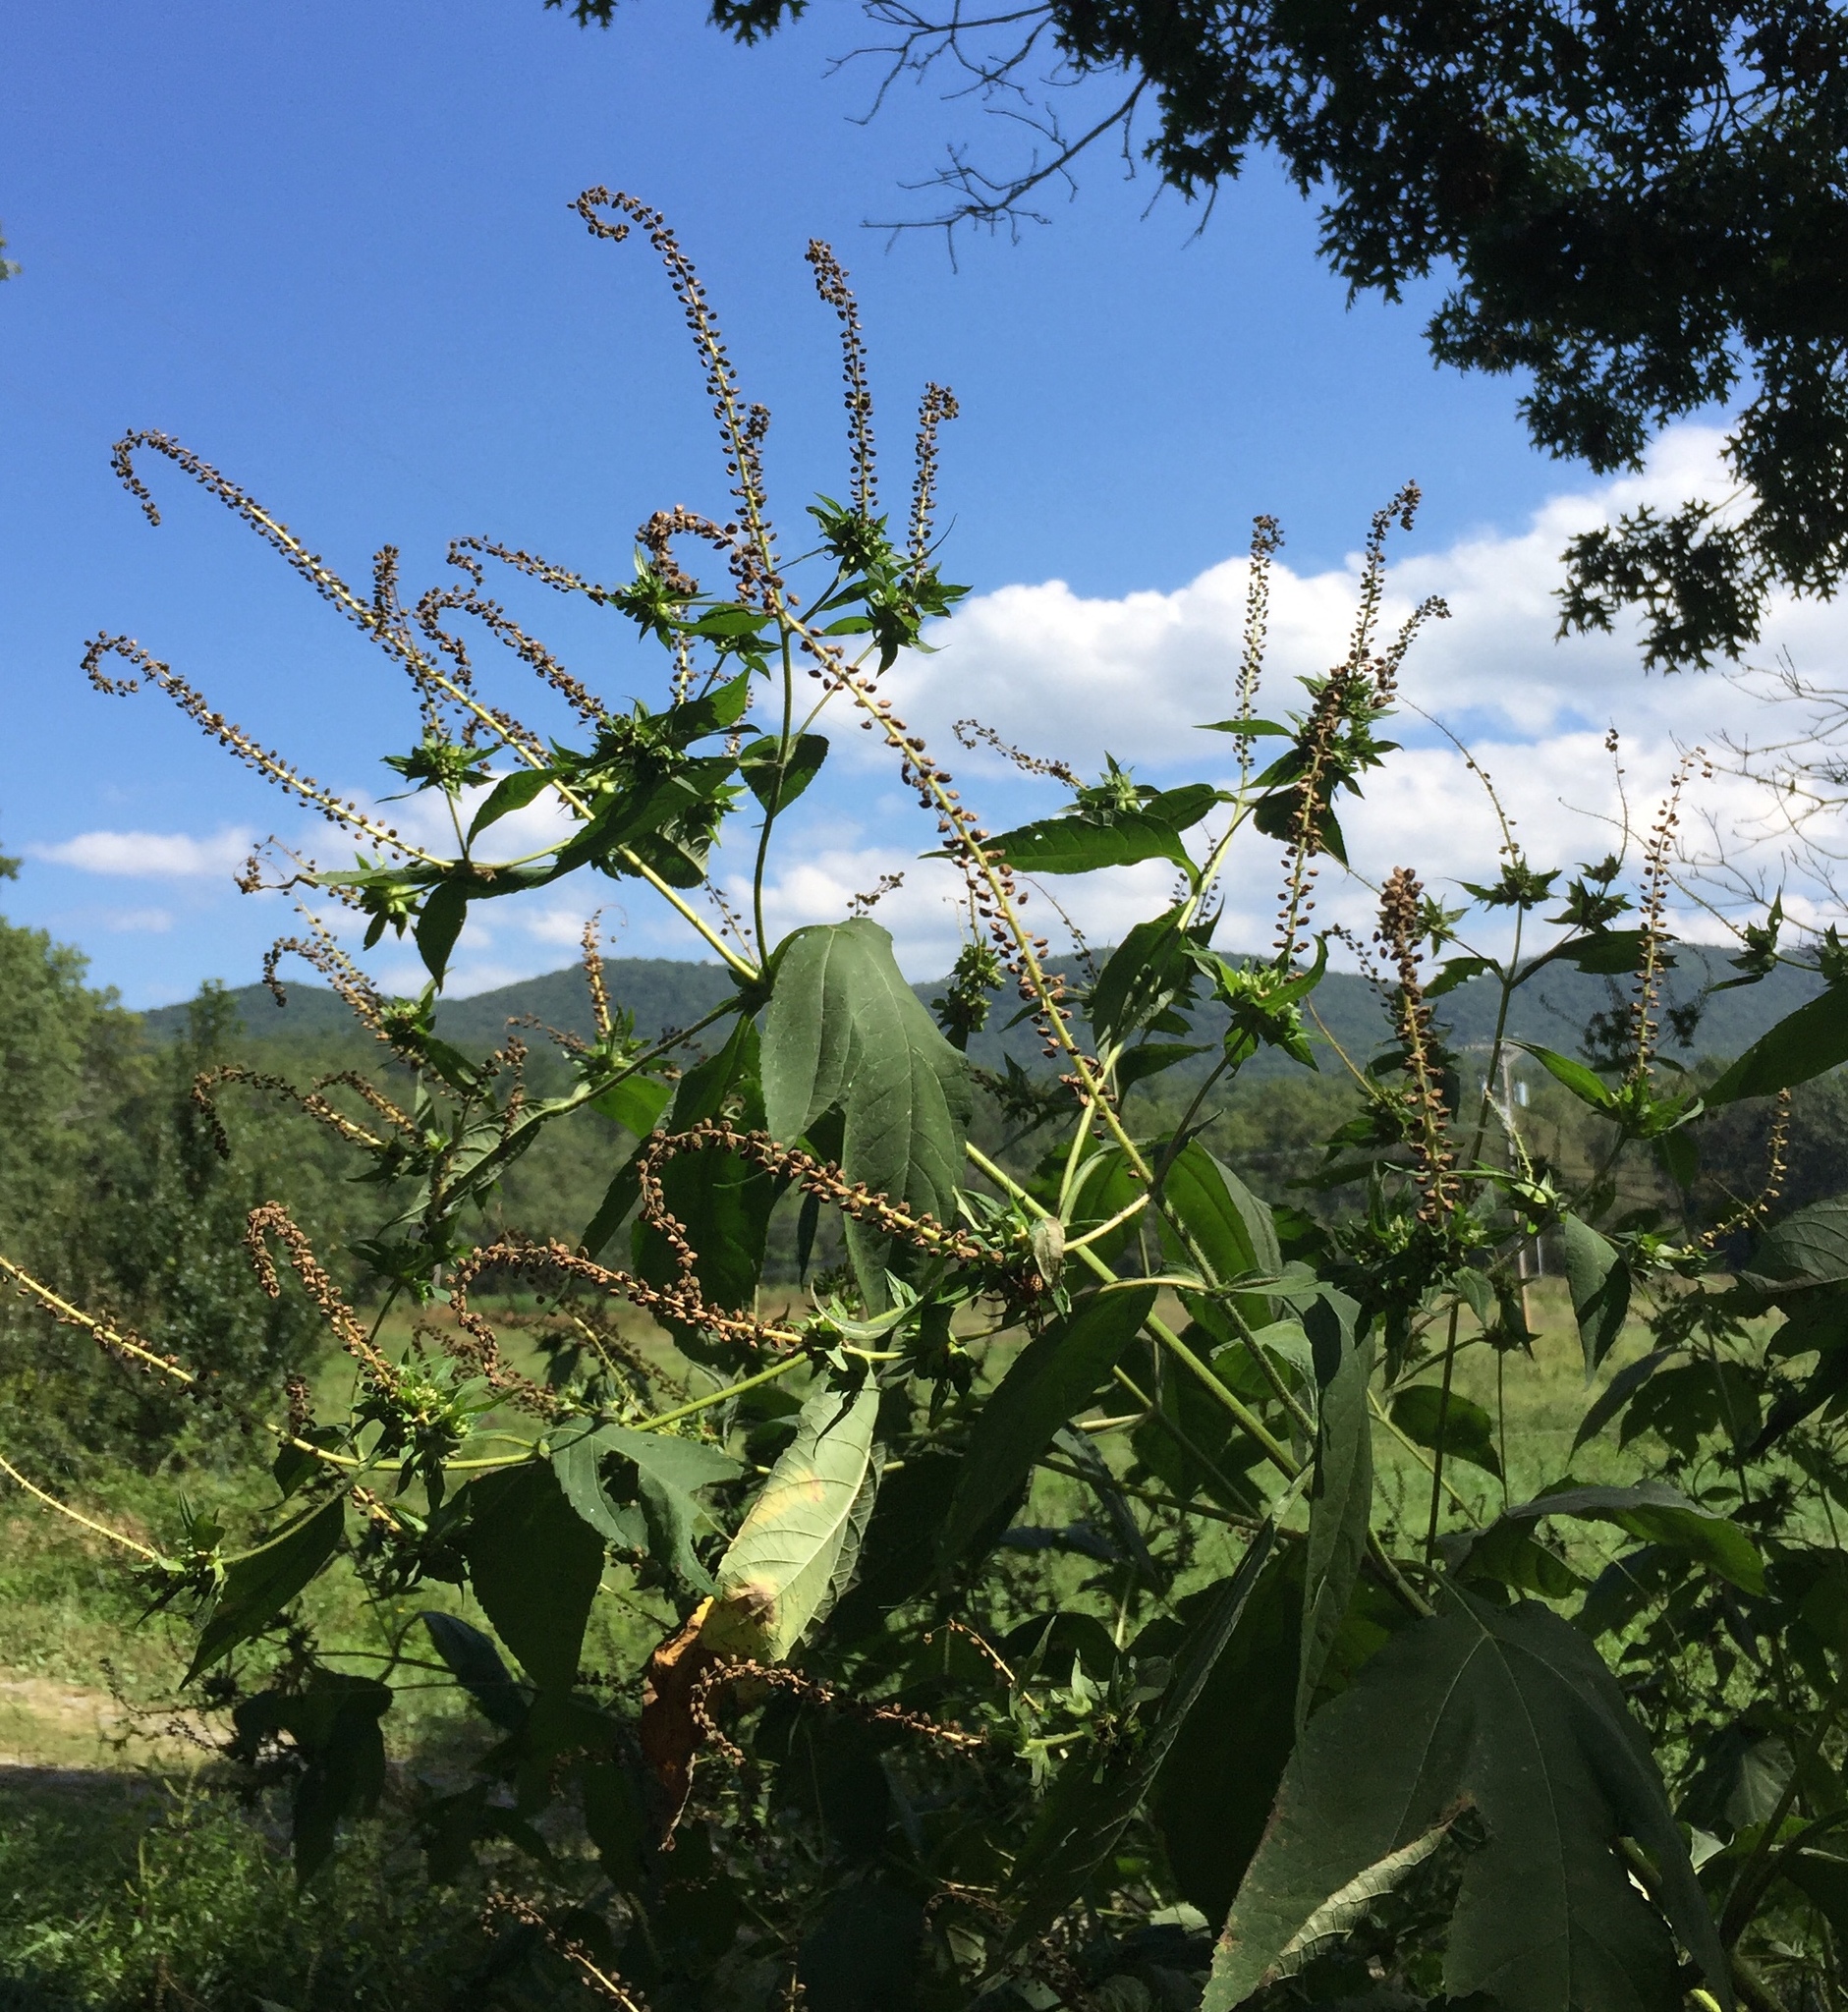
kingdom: Plantae
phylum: Tracheophyta
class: Magnoliopsida
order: Asterales
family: Asteraceae
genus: Ambrosia
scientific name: Ambrosia trifida
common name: Giant ragweed
